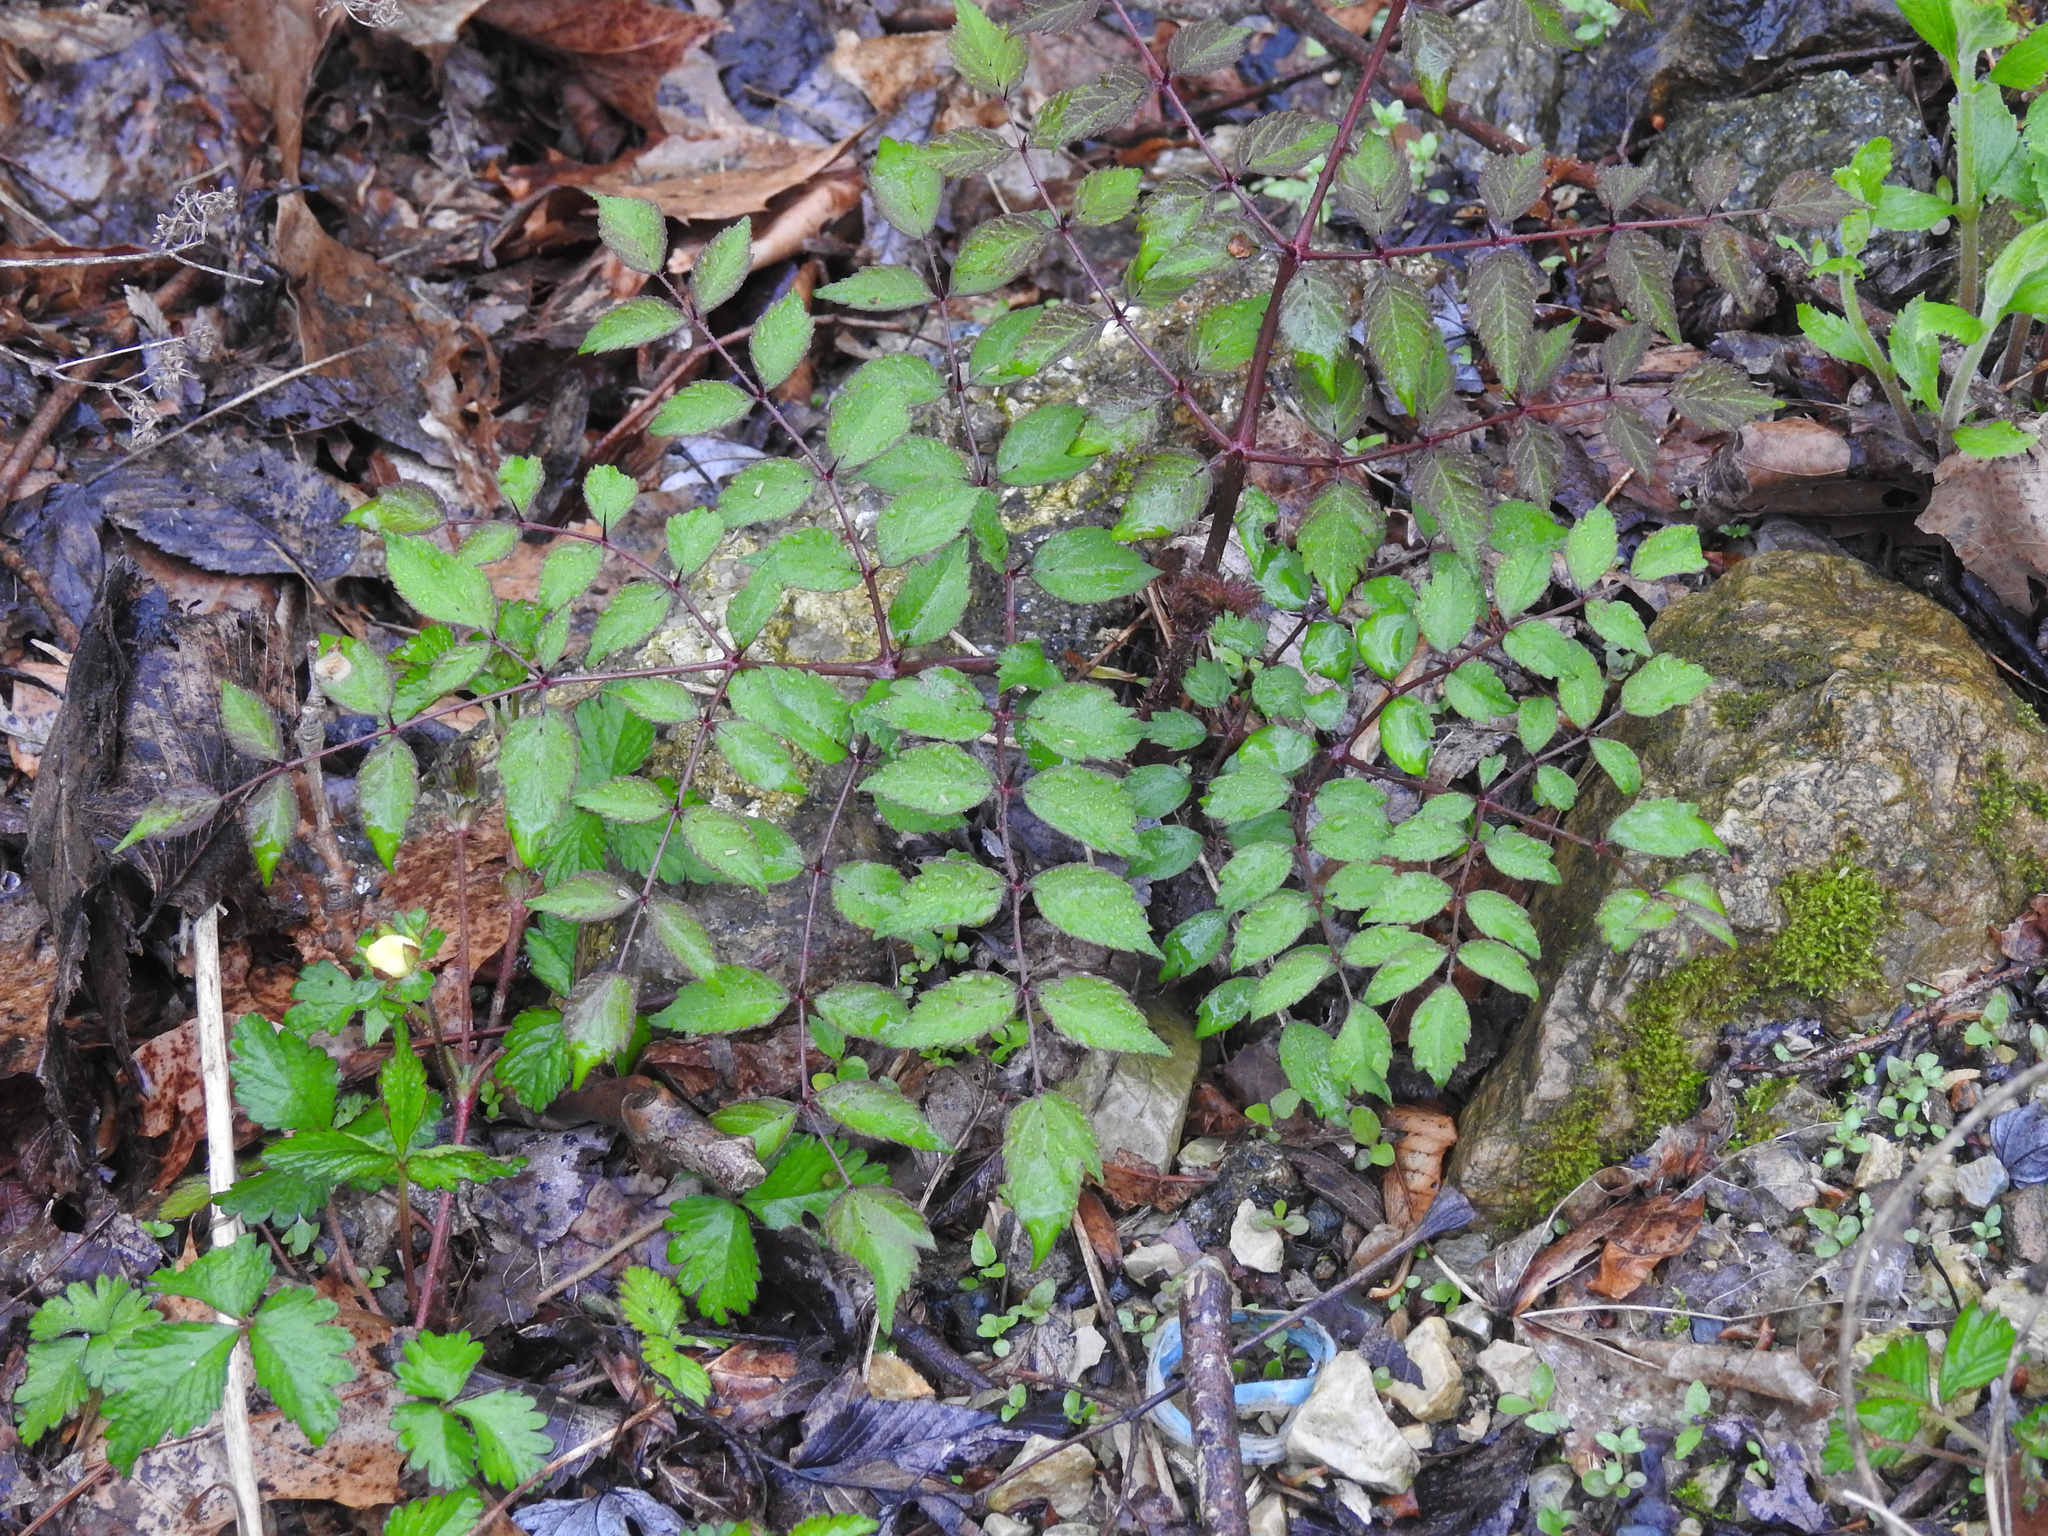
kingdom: Plantae
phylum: Tracheophyta
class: Magnoliopsida
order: Apiales
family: Araliaceae
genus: Aralia
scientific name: Aralia elata
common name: Japanese angelica-tree
